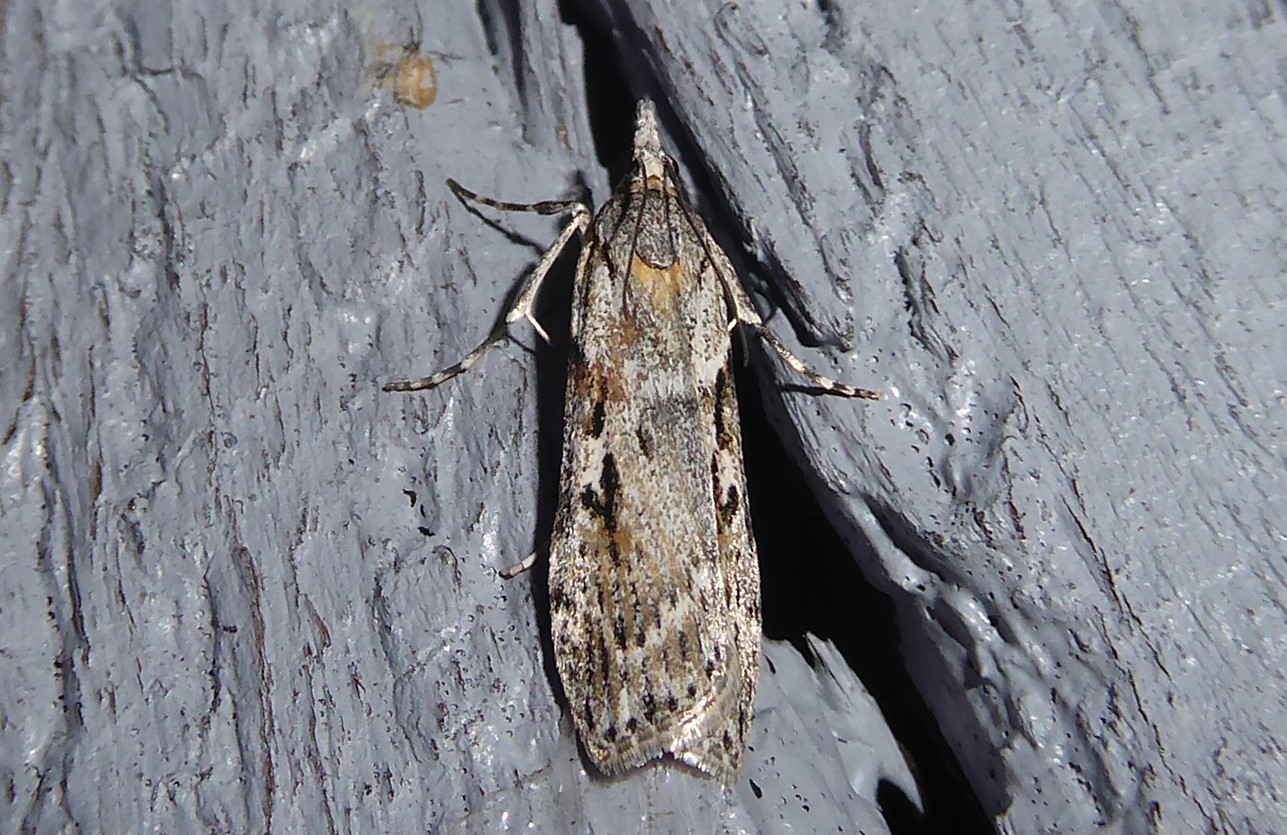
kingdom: Animalia
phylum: Arthropoda
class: Insecta
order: Lepidoptera
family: Crambidae
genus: Scoparia
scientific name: Scoparia halopis
